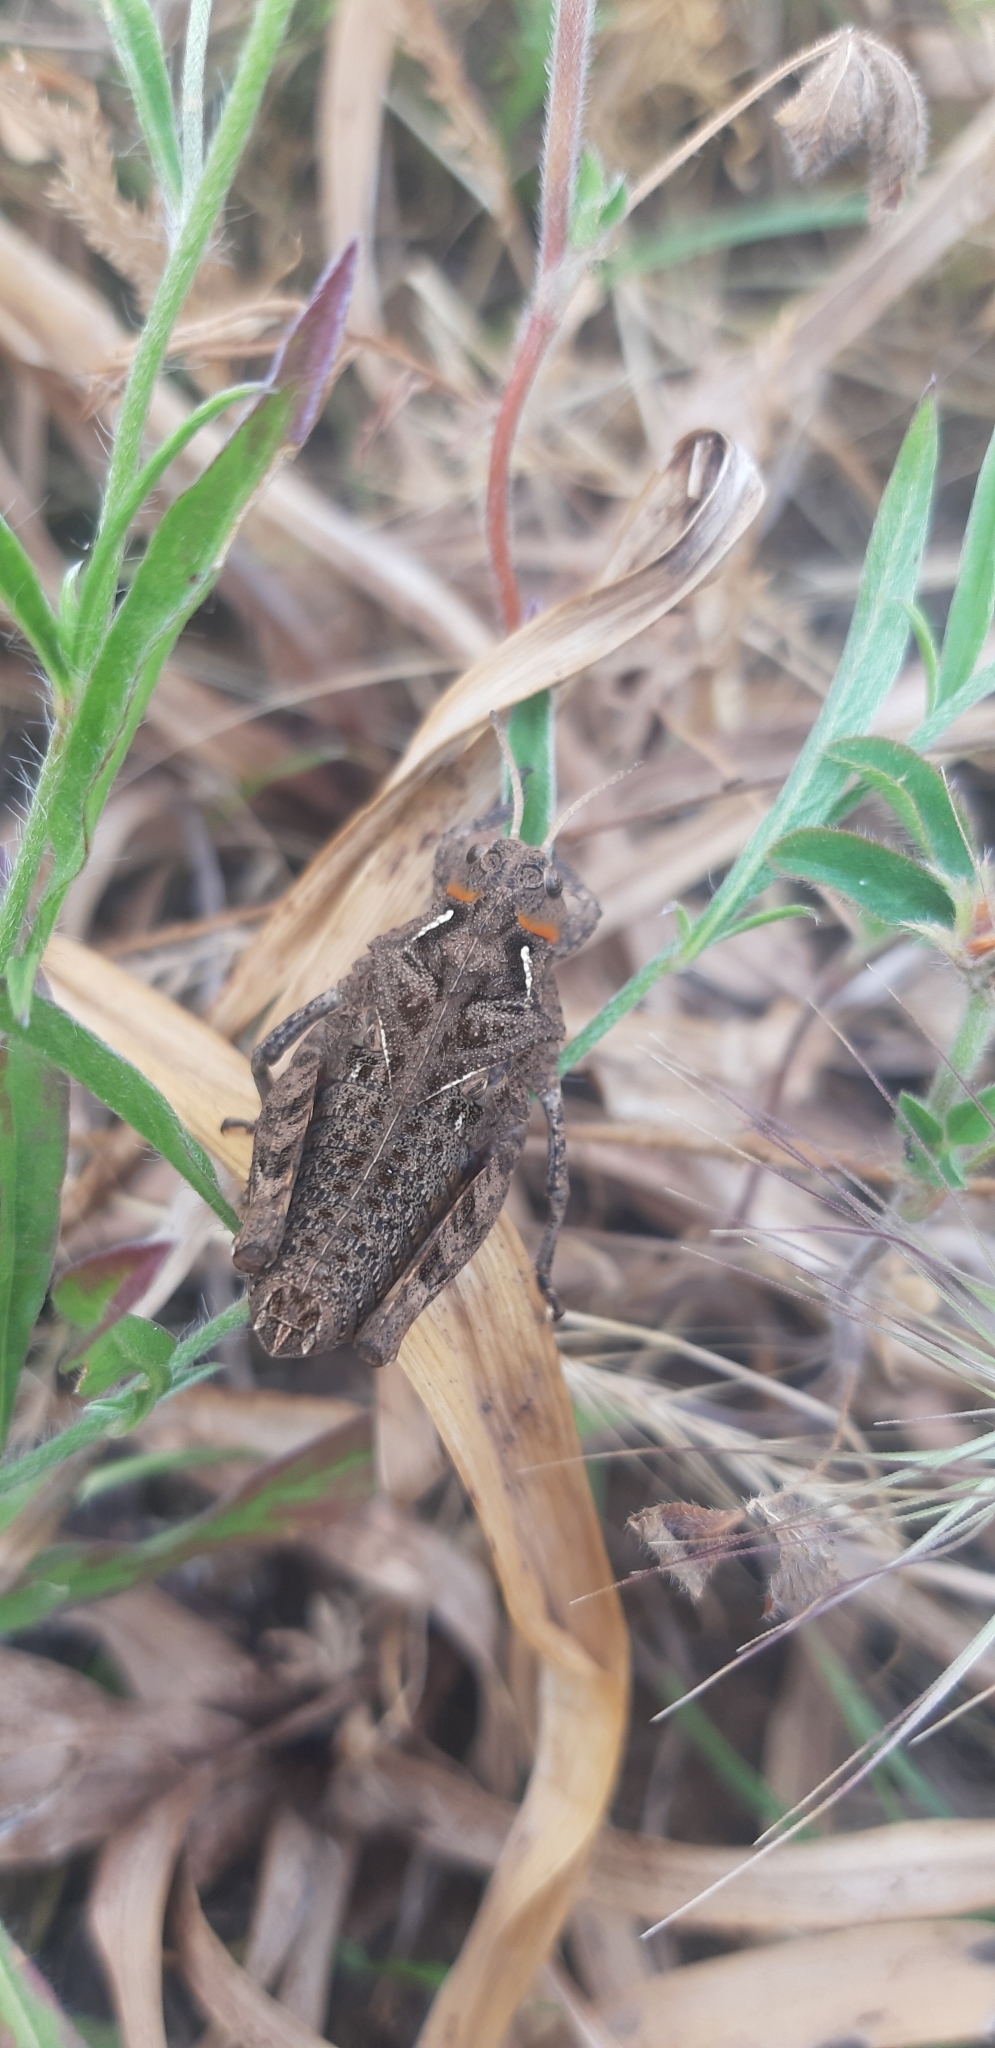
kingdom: Animalia
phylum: Arthropoda
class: Insecta
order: Orthoptera
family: Pamphagidae
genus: Prionotropis
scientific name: Prionotropis appula
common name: Apulian stone grasshopper
